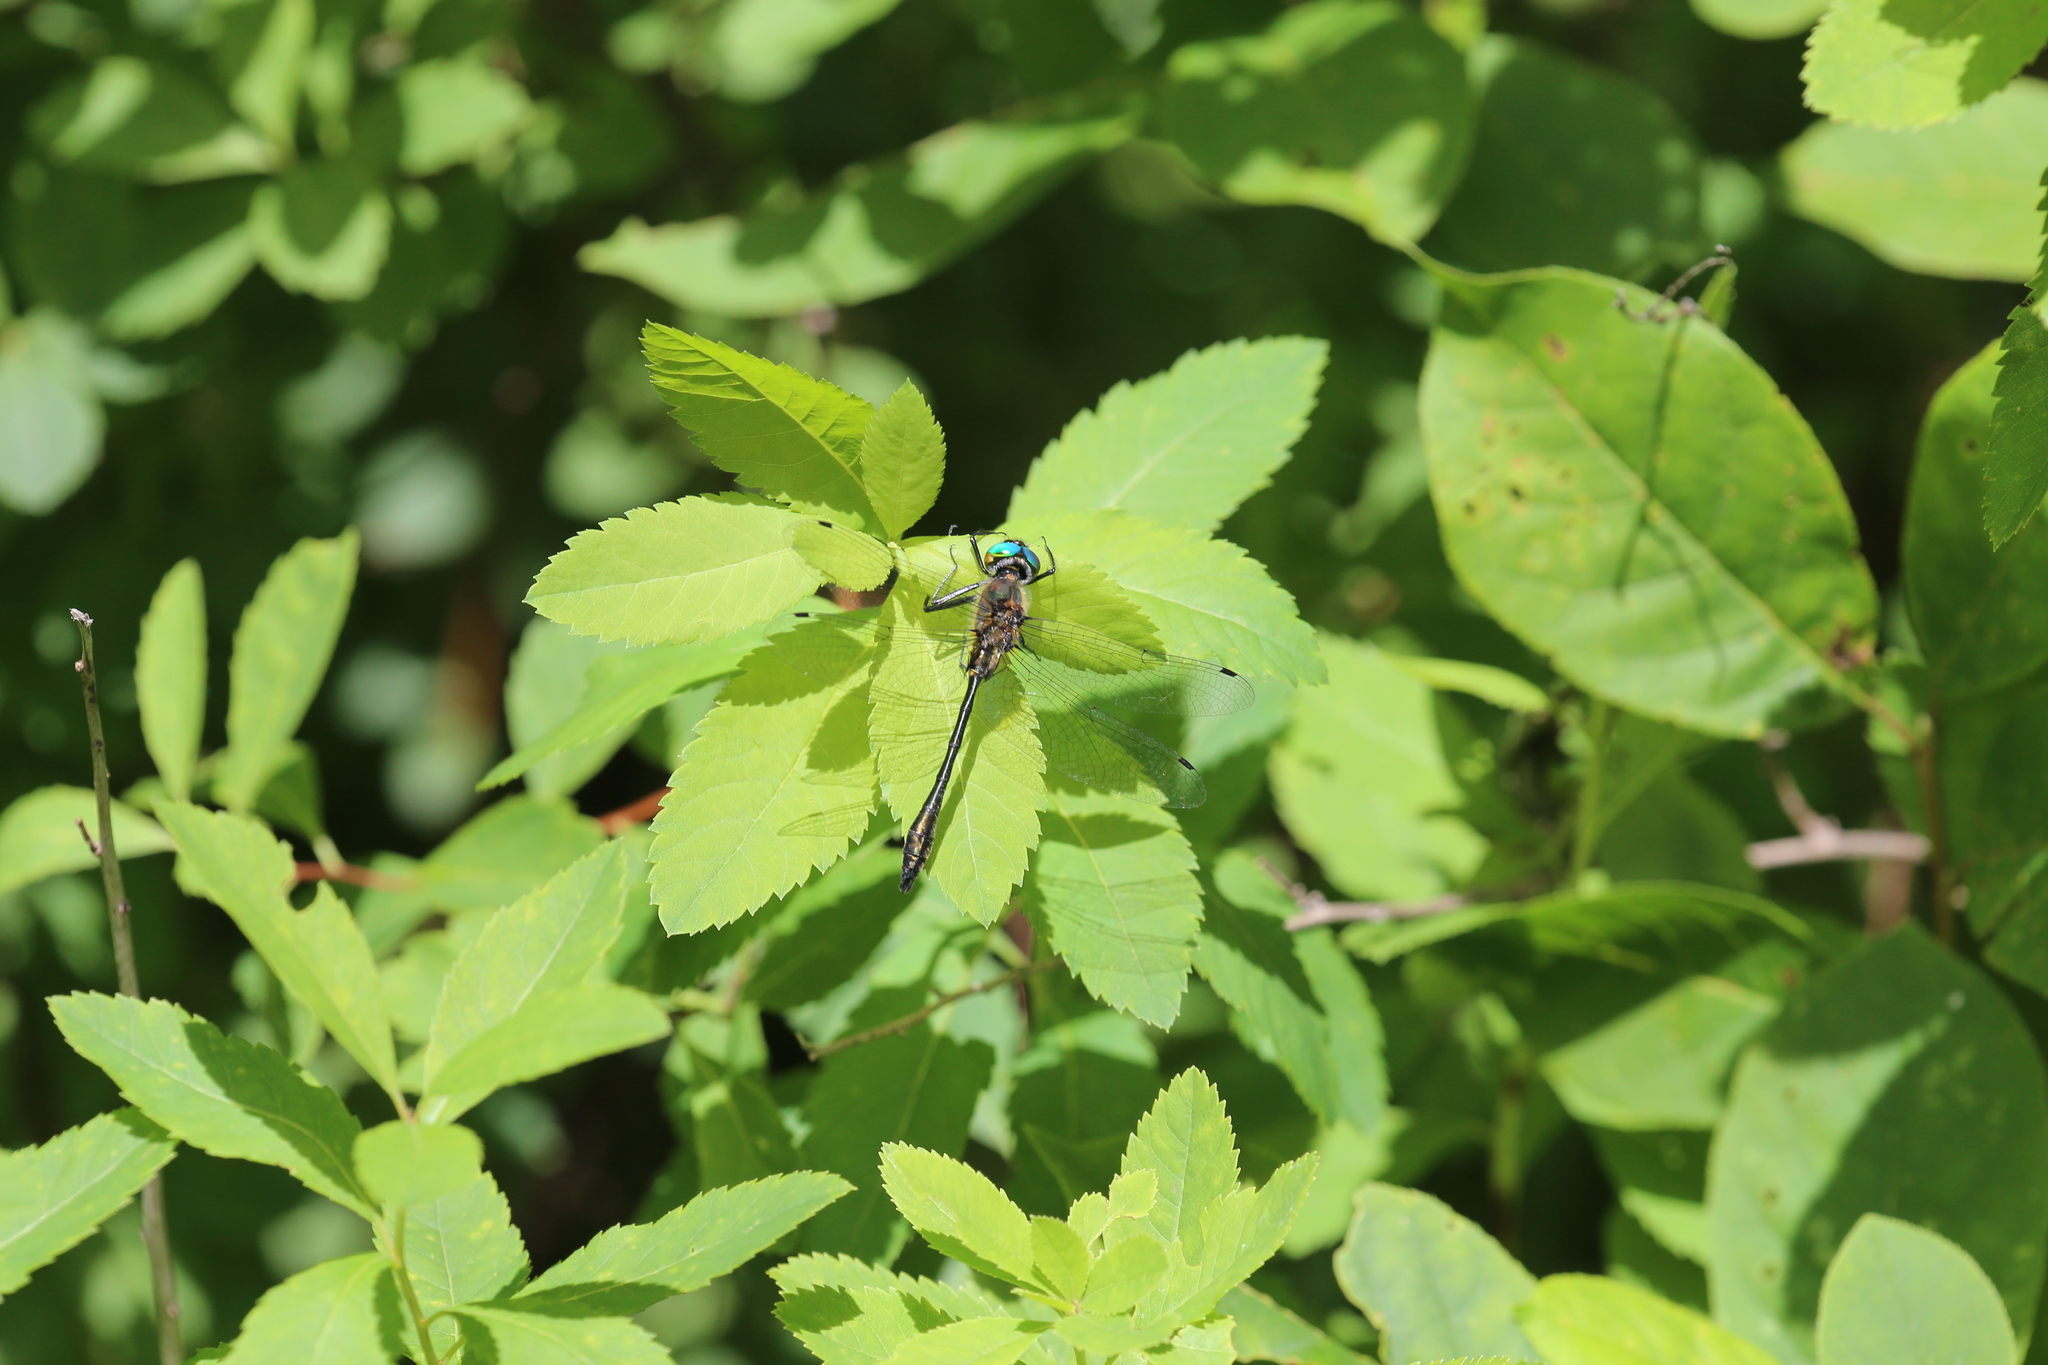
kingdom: Animalia
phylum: Arthropoda
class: Insecta
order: Odonata
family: Corduliidae
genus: Dorocordulia
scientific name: Dorocordulia libera
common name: Racket-tailed emerald
